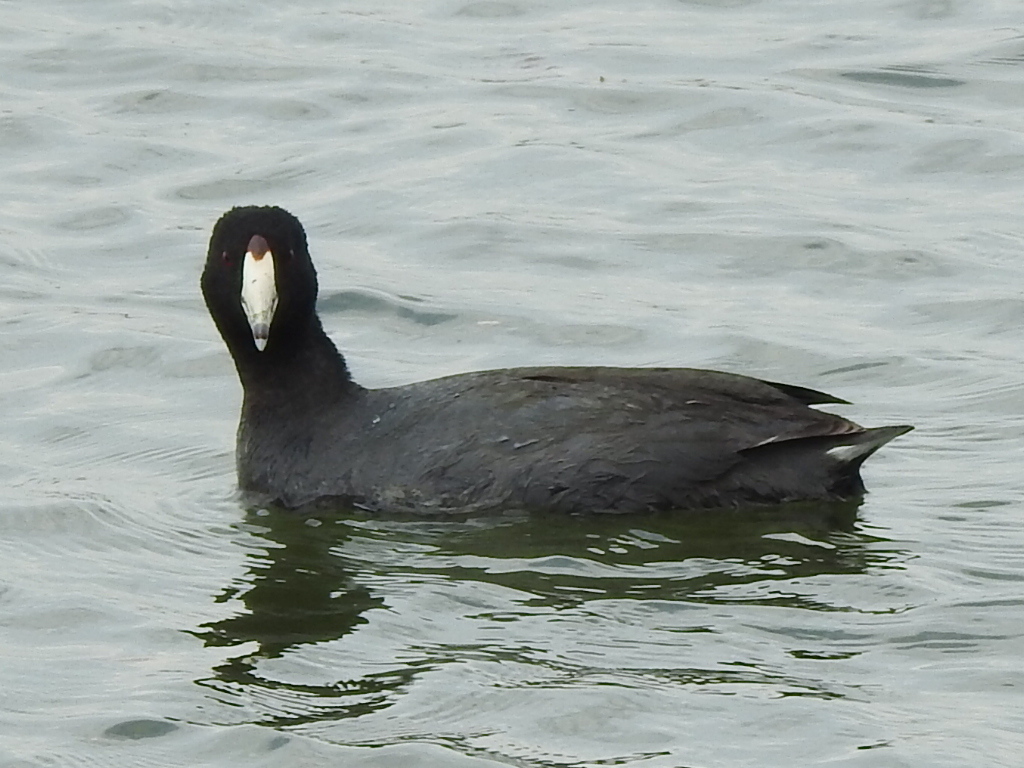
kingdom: Animalia
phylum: Chordata
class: Aves
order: Gruiformes
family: Rallidae
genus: Fulica
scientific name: Fulica americana
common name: American coot
